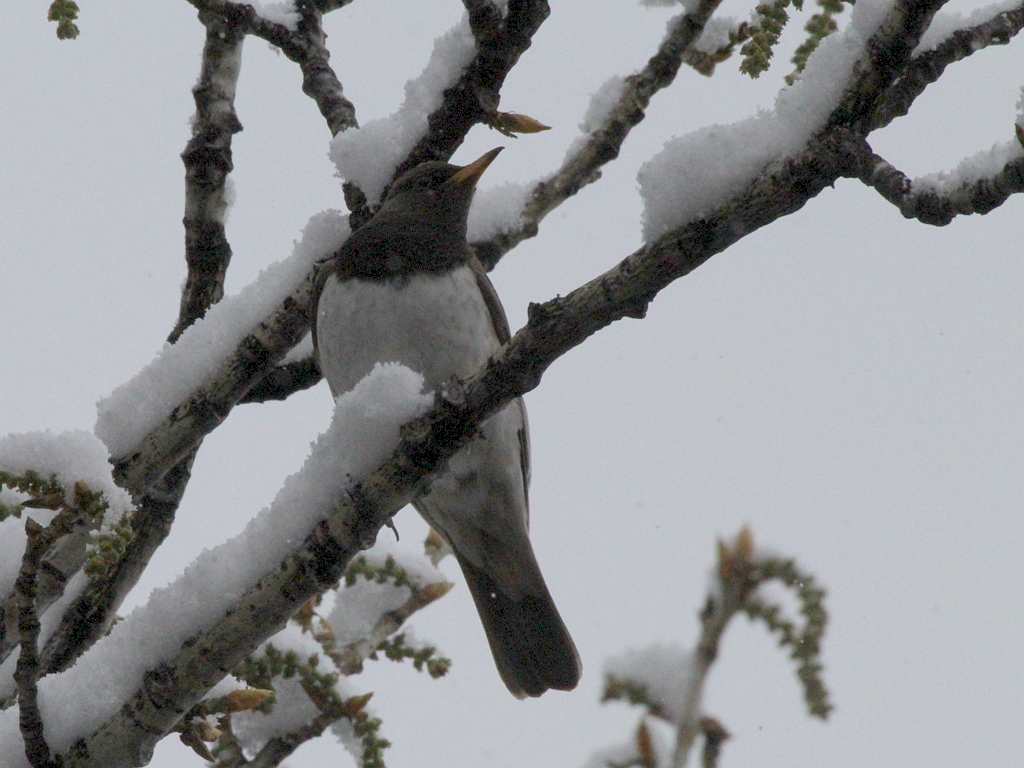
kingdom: Animalia
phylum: Chordata
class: Aves
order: Passeriformes
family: Turdidae
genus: Turdus
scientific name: Turdus atrogularis
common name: Black-throated thrush
